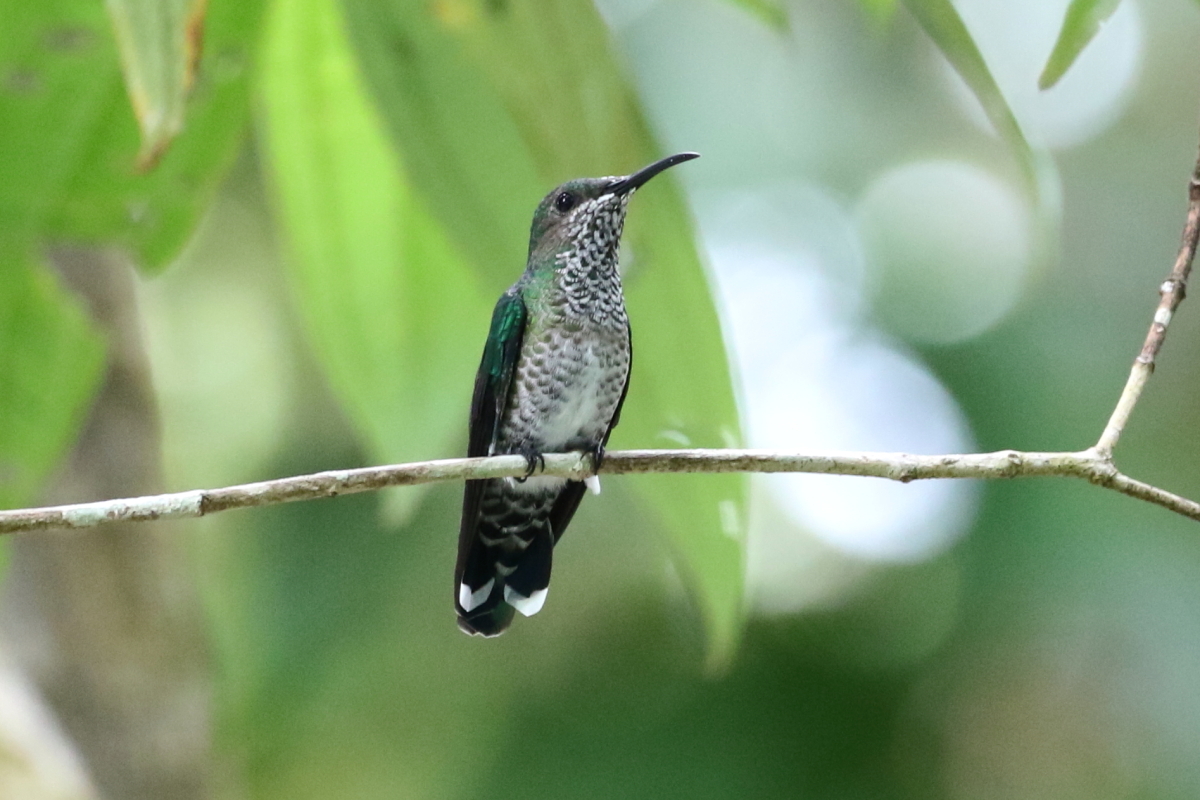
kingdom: Animalia
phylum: Chordata
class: Aves
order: Apodiformes
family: Trochilidae
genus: Florisuga
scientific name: Florisuga mellivora
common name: White-necked jacobin
